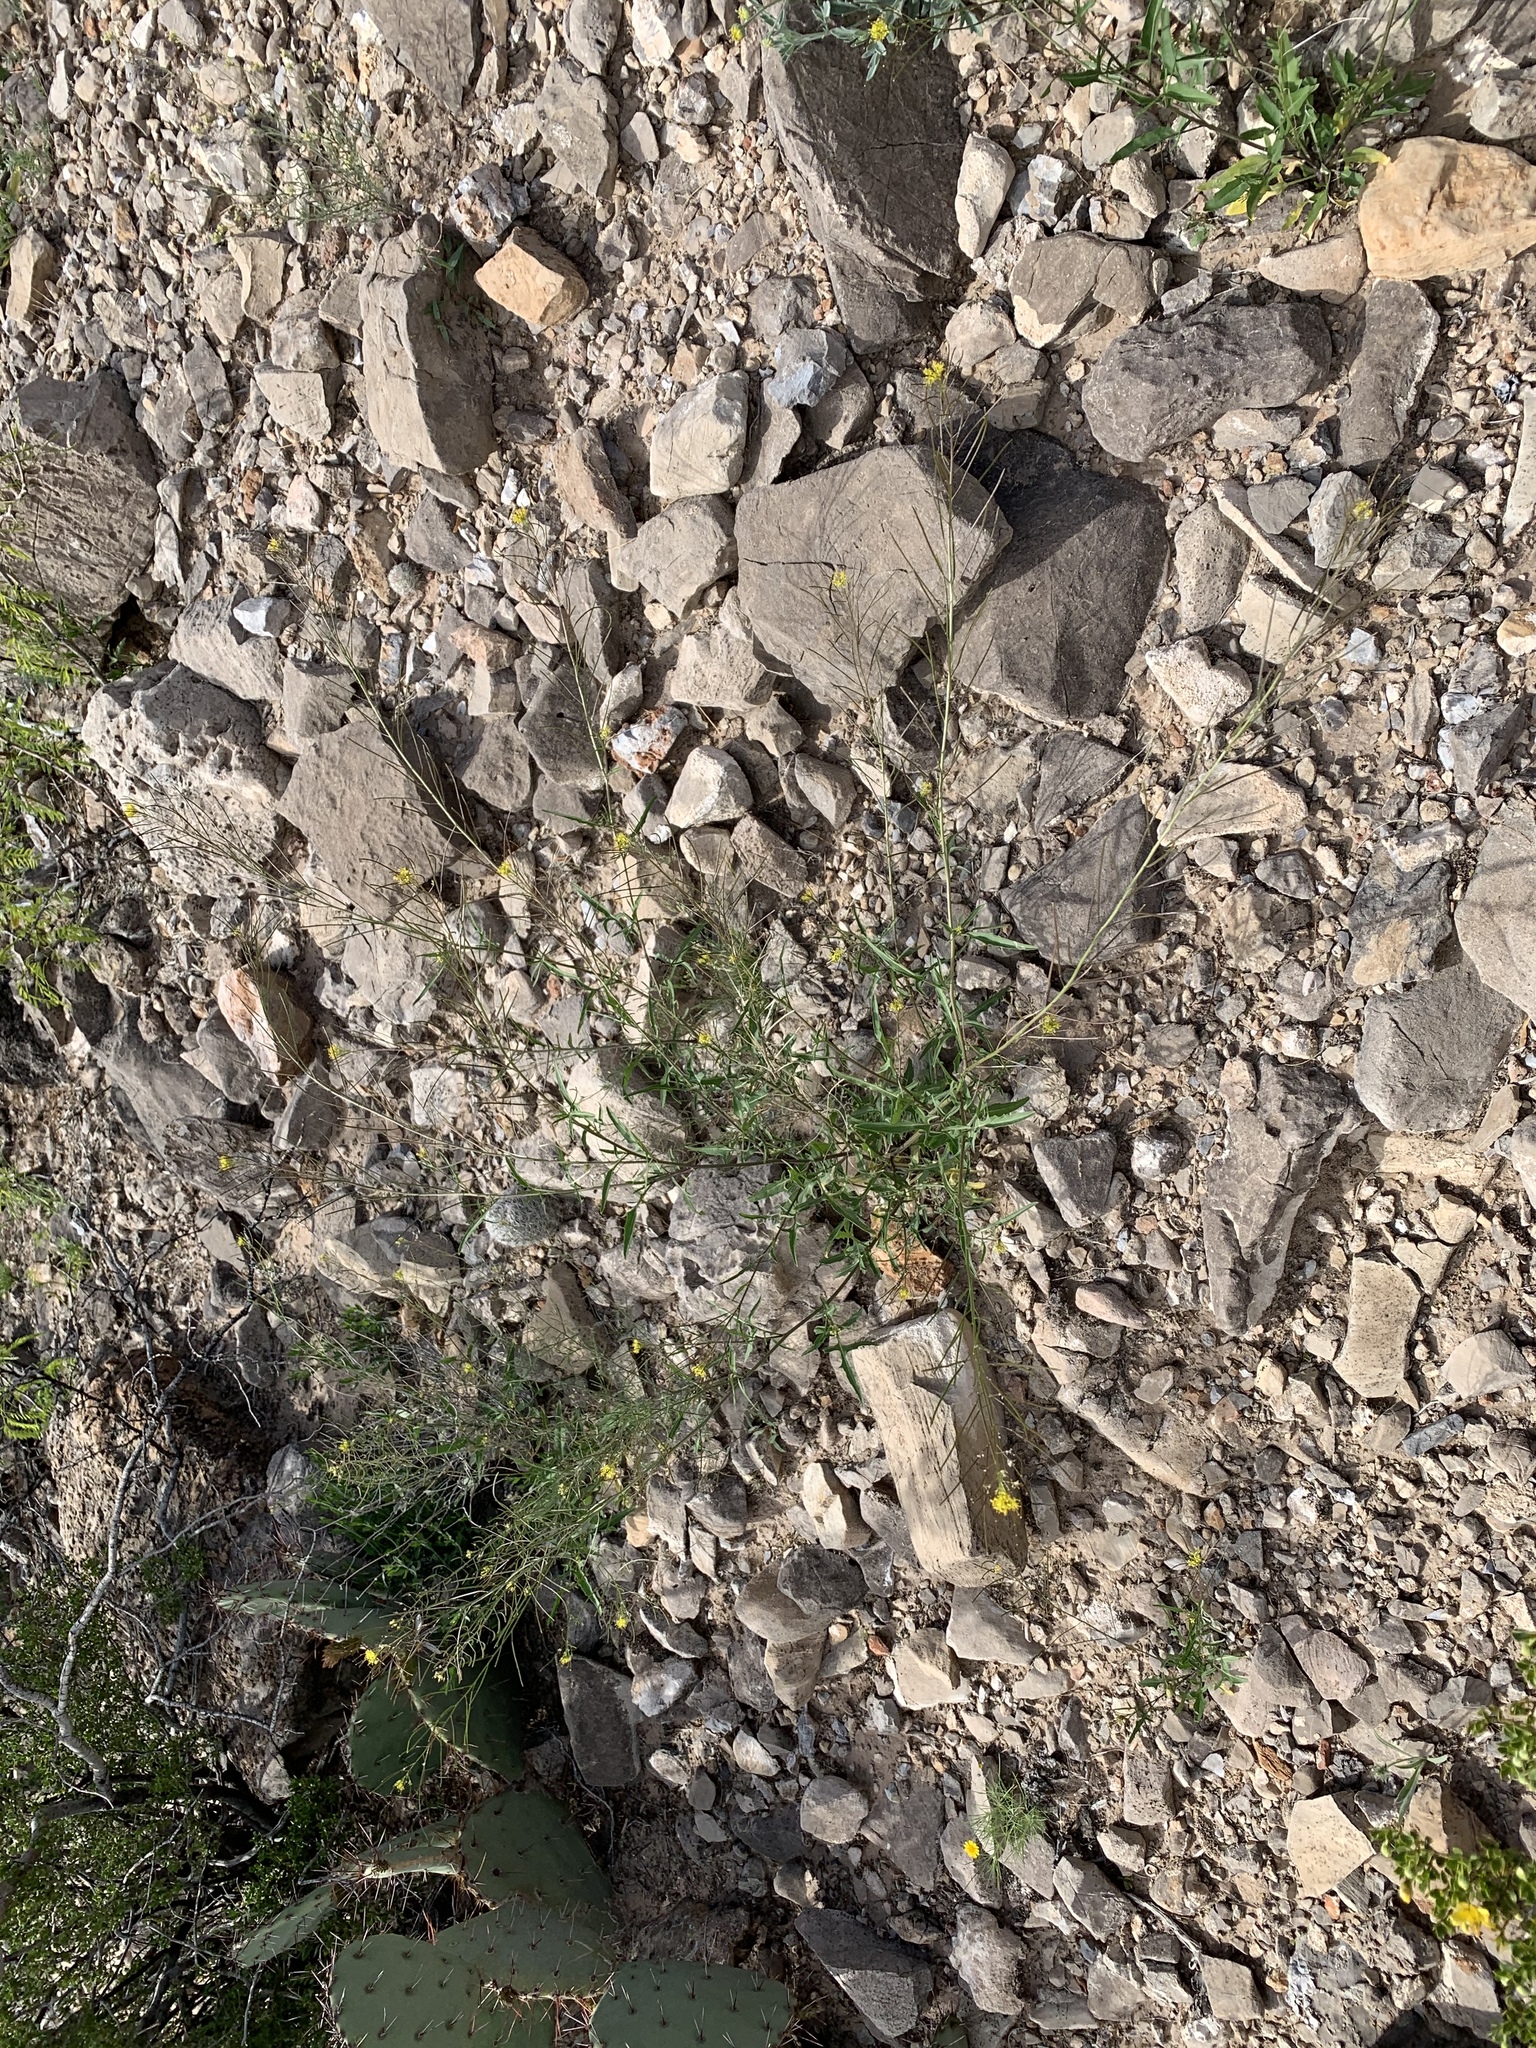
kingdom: Plantae
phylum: Tracheophyta
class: Magnoliopsida
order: Brassicales
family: Brassicaceae
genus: Sisymbrium
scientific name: Sisymbrium irio
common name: London rocket
